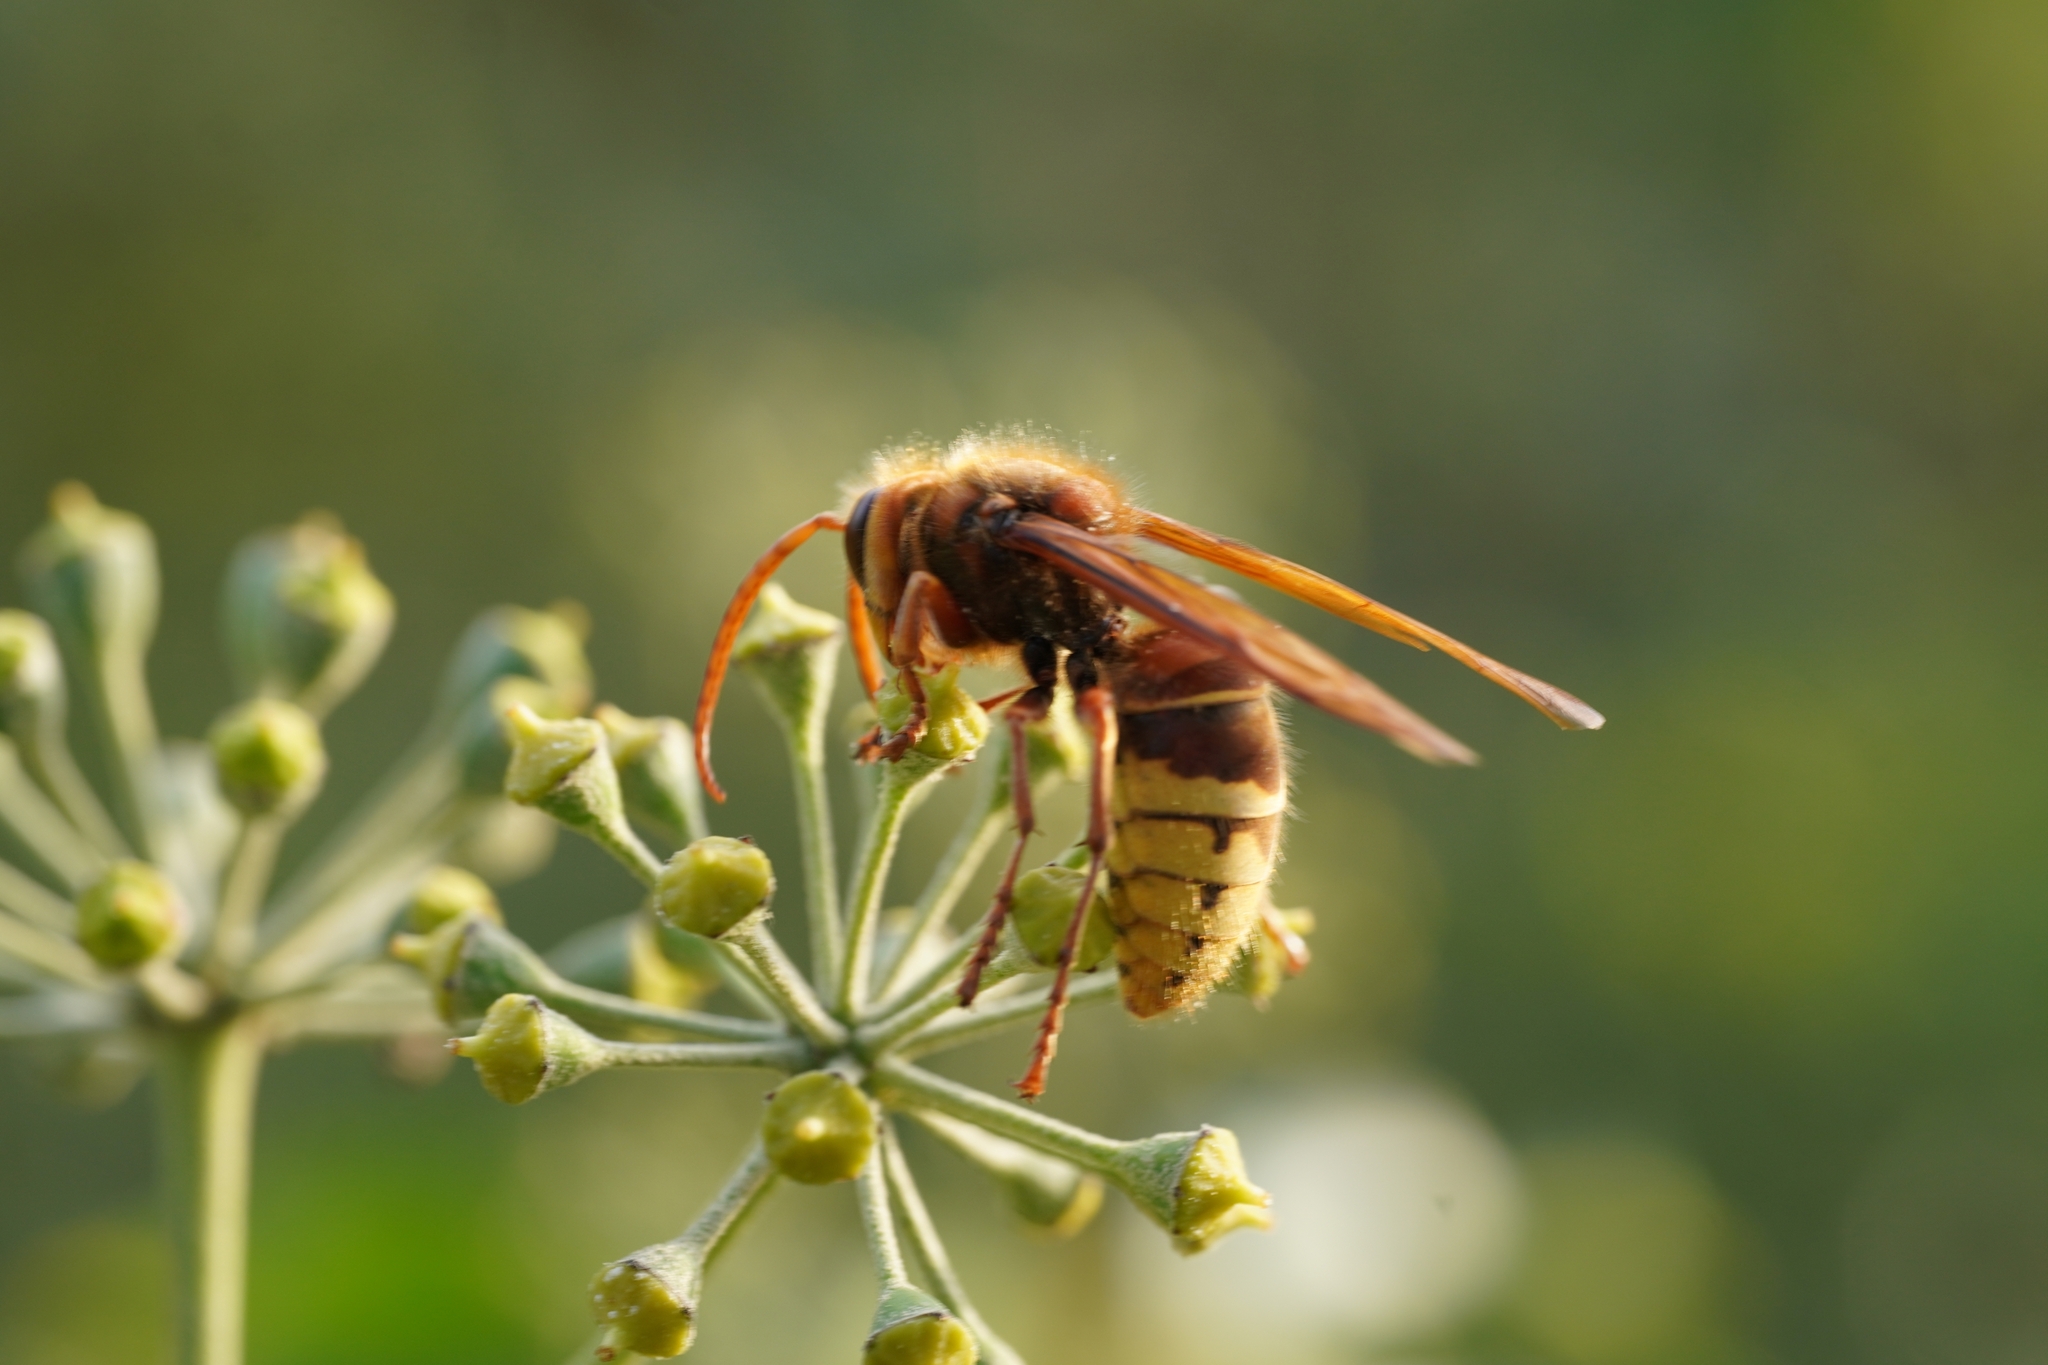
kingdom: Animalia
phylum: Arthropoda
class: Insecta
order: Hymenoptera
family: Vespidae
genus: Vespa
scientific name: Vespa crabro
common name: Hornet
